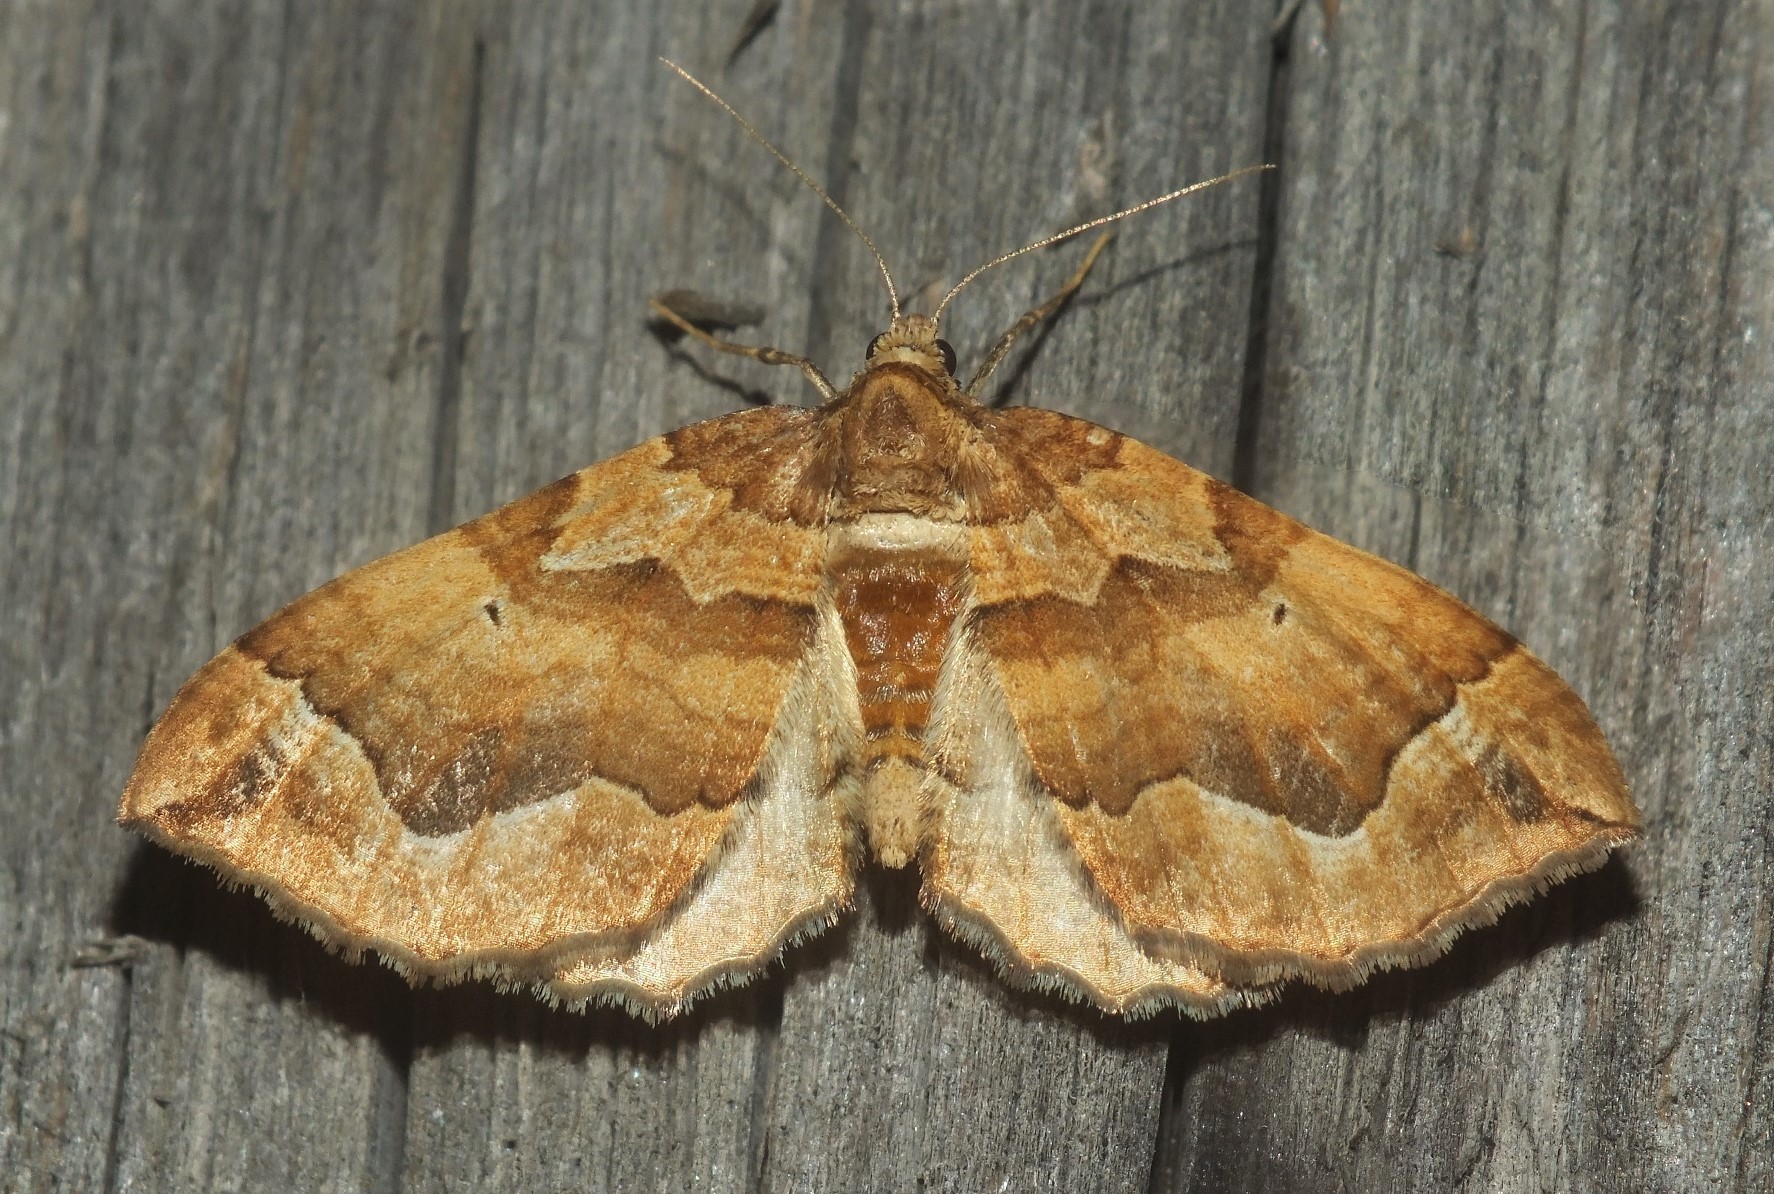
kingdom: Animalia
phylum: Arthropoda
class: Insecta
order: Lepidoptera
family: Geometridae
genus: Pelurga
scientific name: Pelurga comitata
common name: Dark spinach
